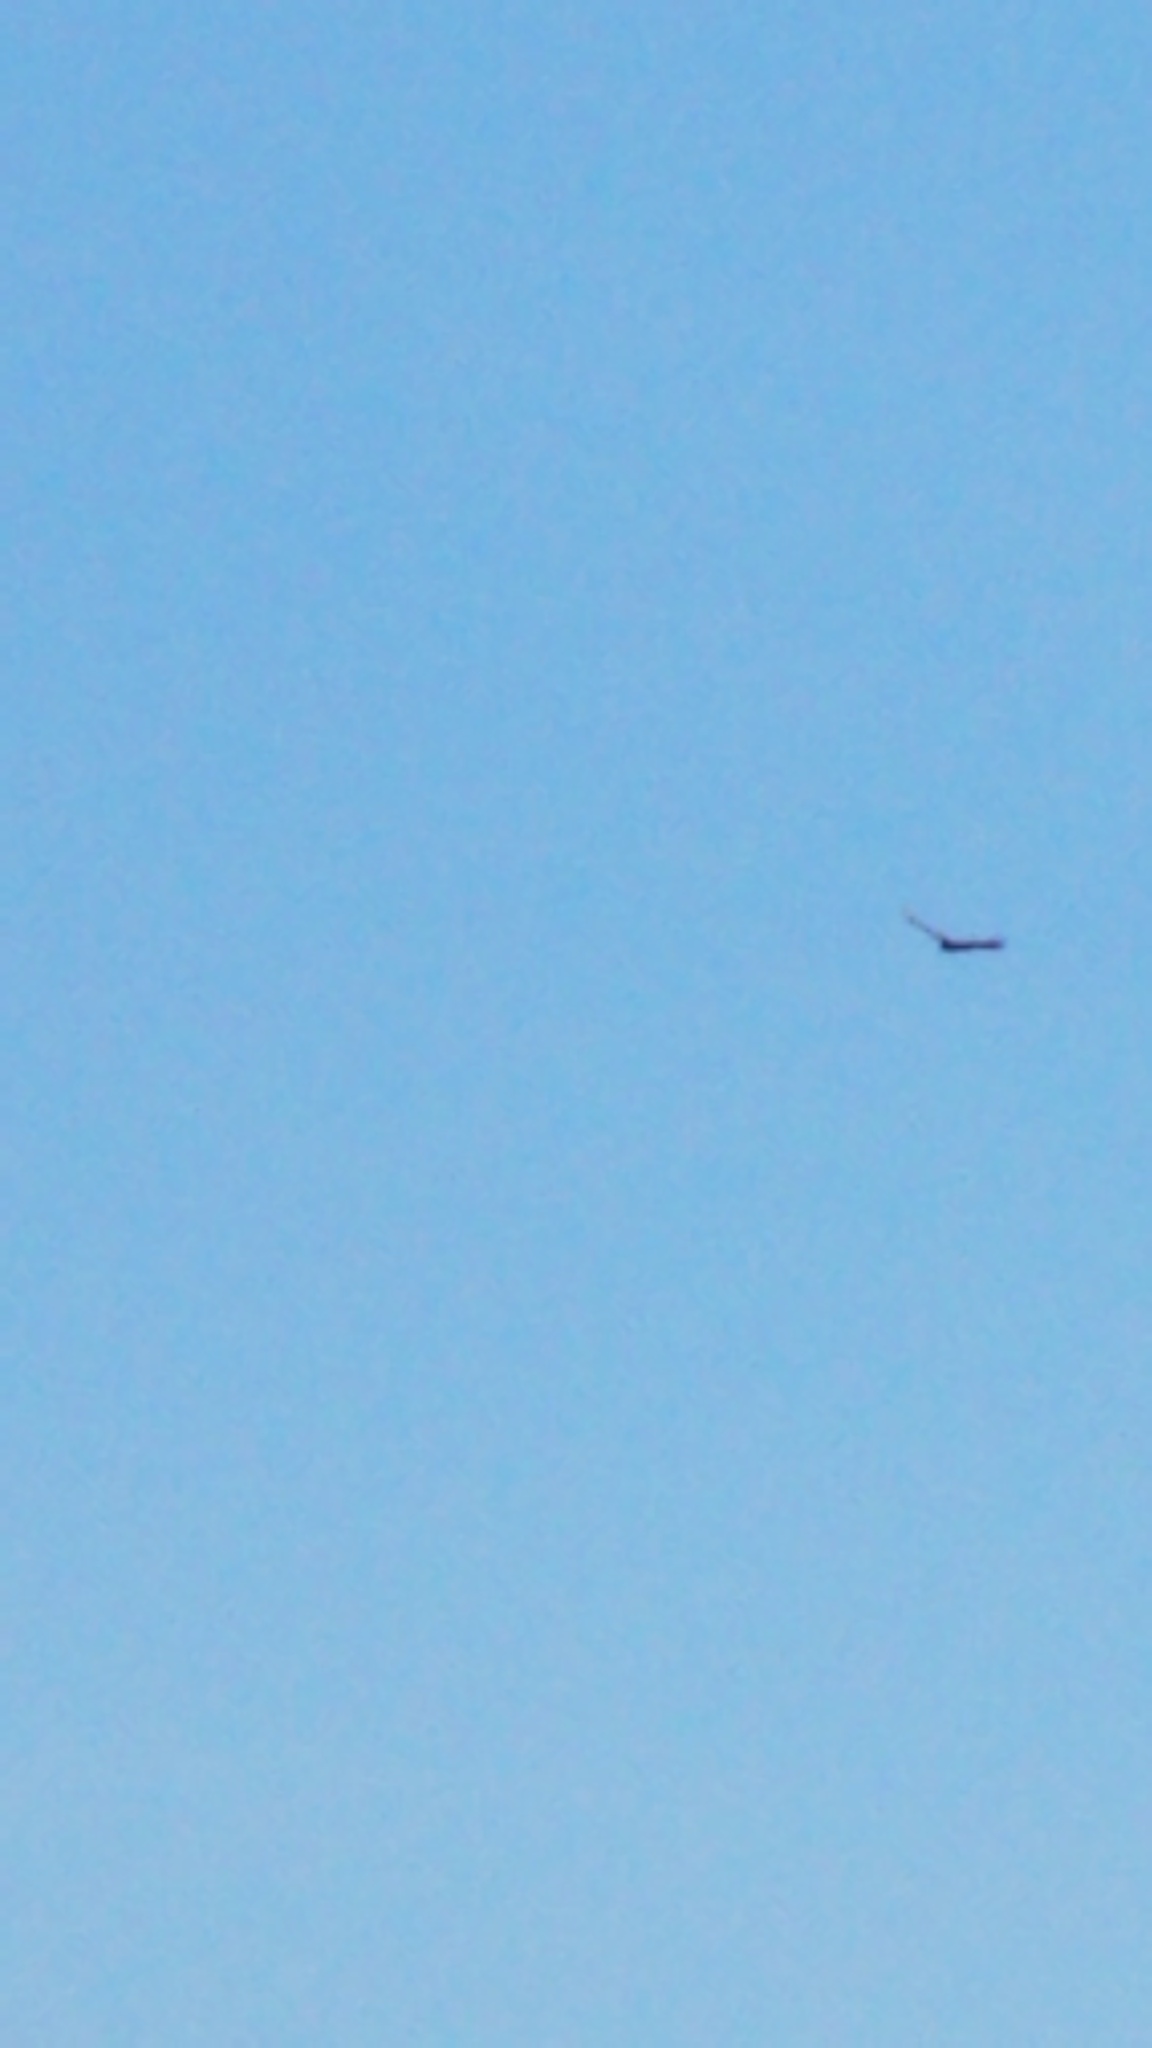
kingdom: Animalia
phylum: Chordata
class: Aves
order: Accipitriformes
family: Cathartidae
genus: Cathartes
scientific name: Cathartes aura
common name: Turkey vulture
